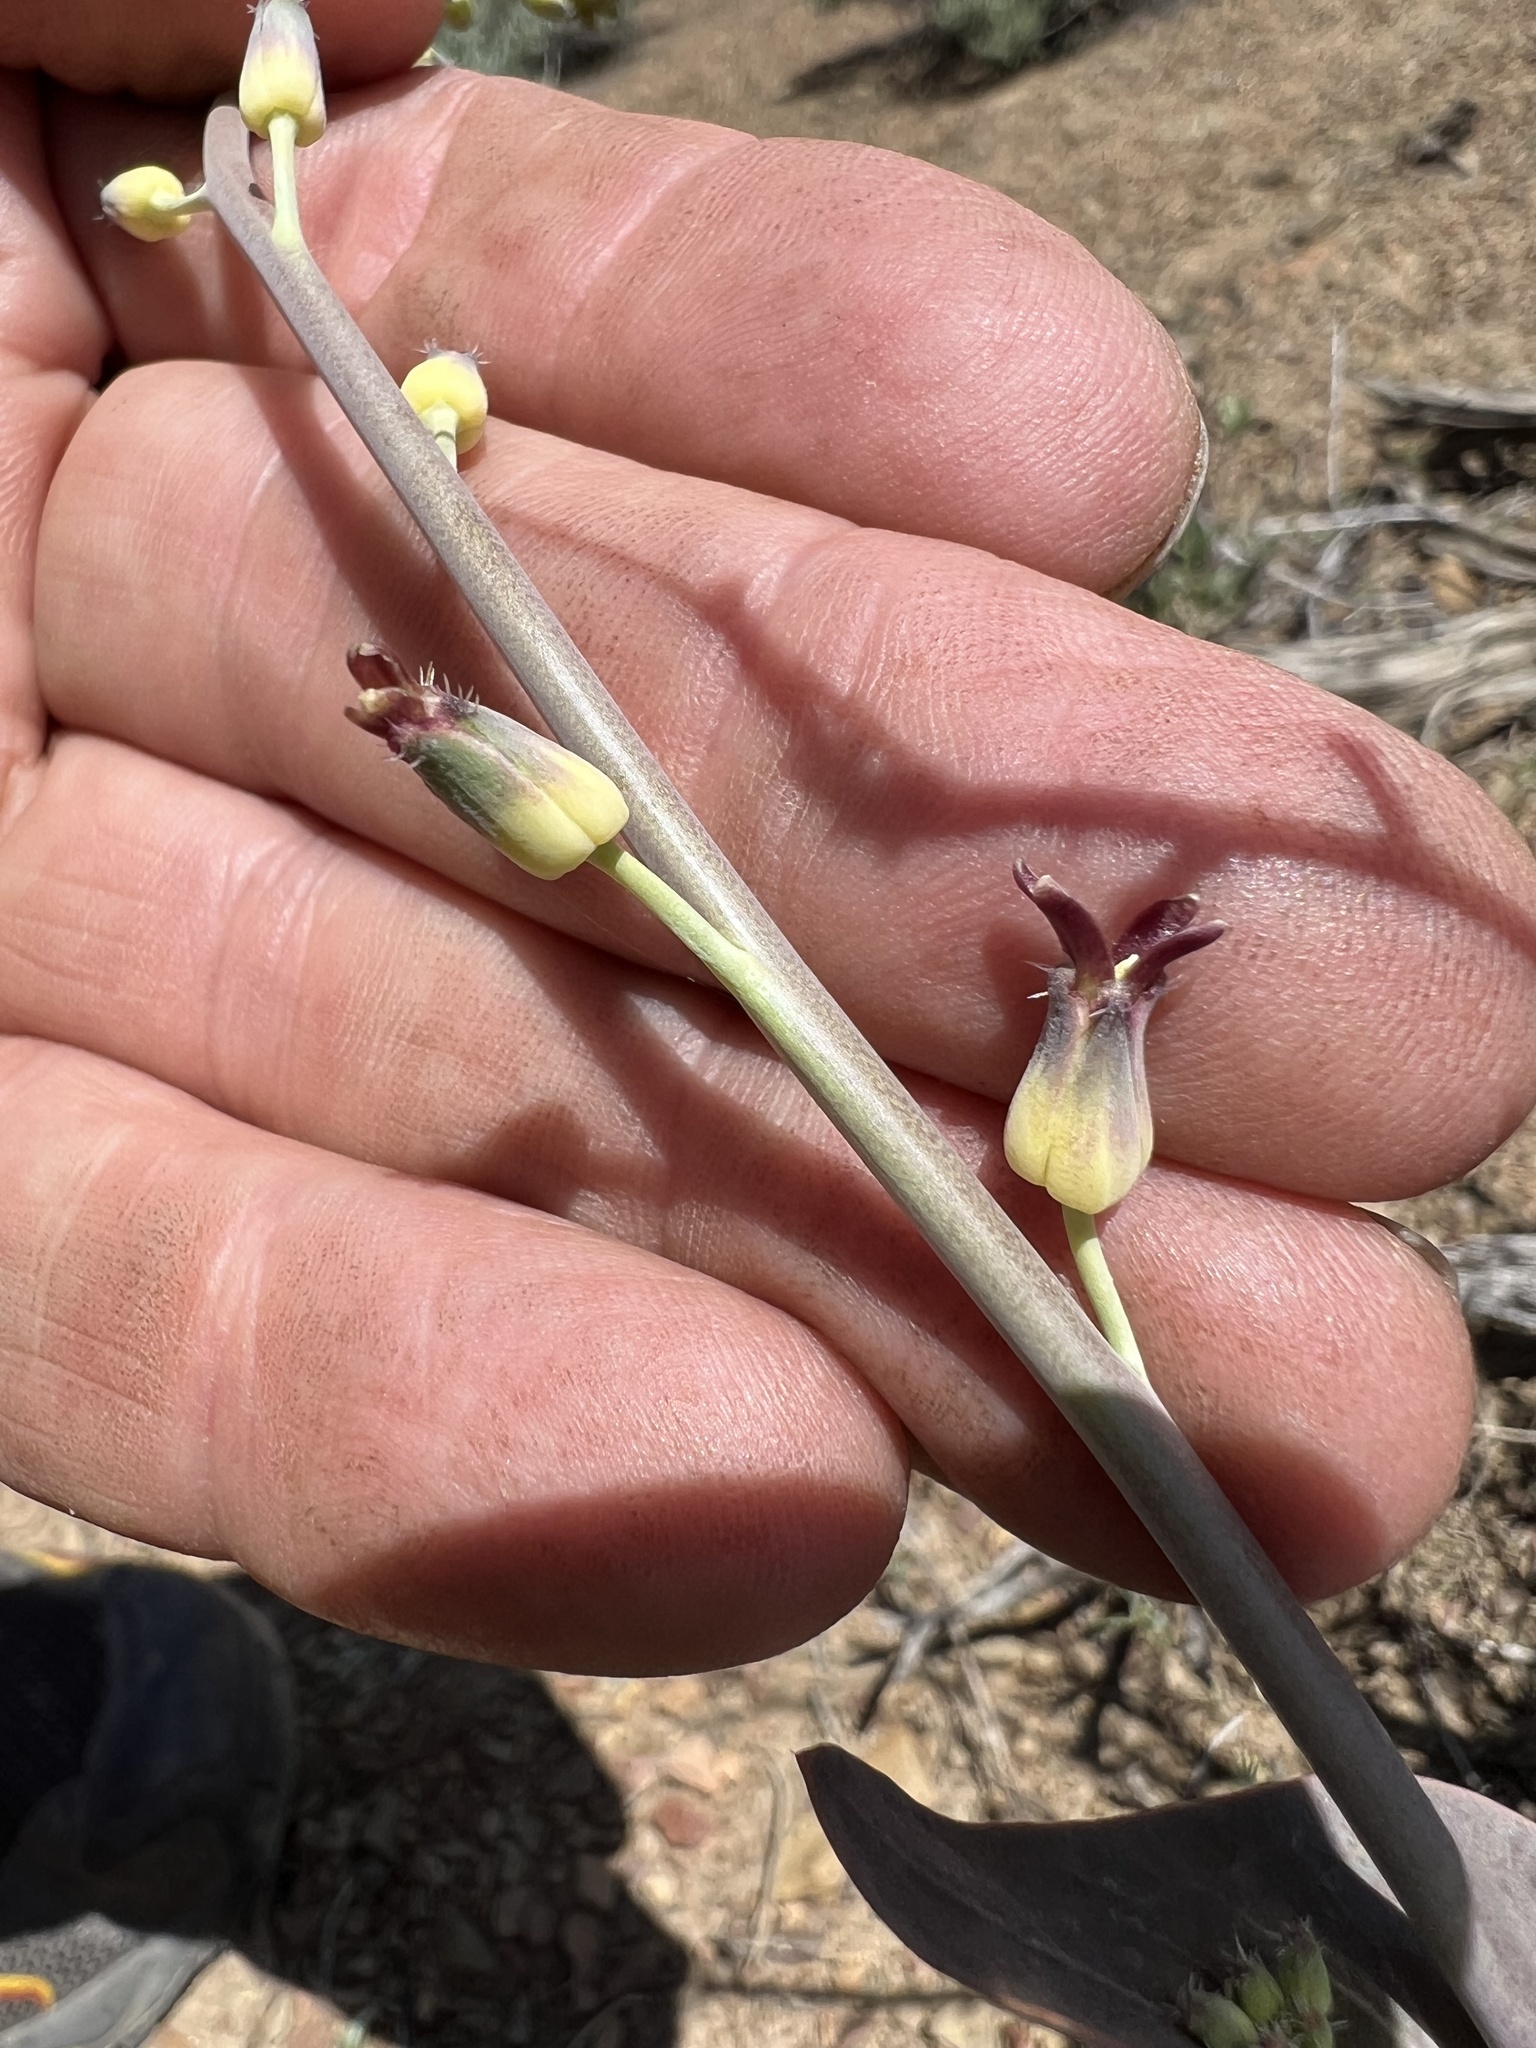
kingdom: Plantae
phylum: Tracheophyta
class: Magnoliopsida
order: Brassicales
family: Brassicaceae
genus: Streptanthus
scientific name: Streptanthus cordatus
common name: Heart-leaf jewel-flower
